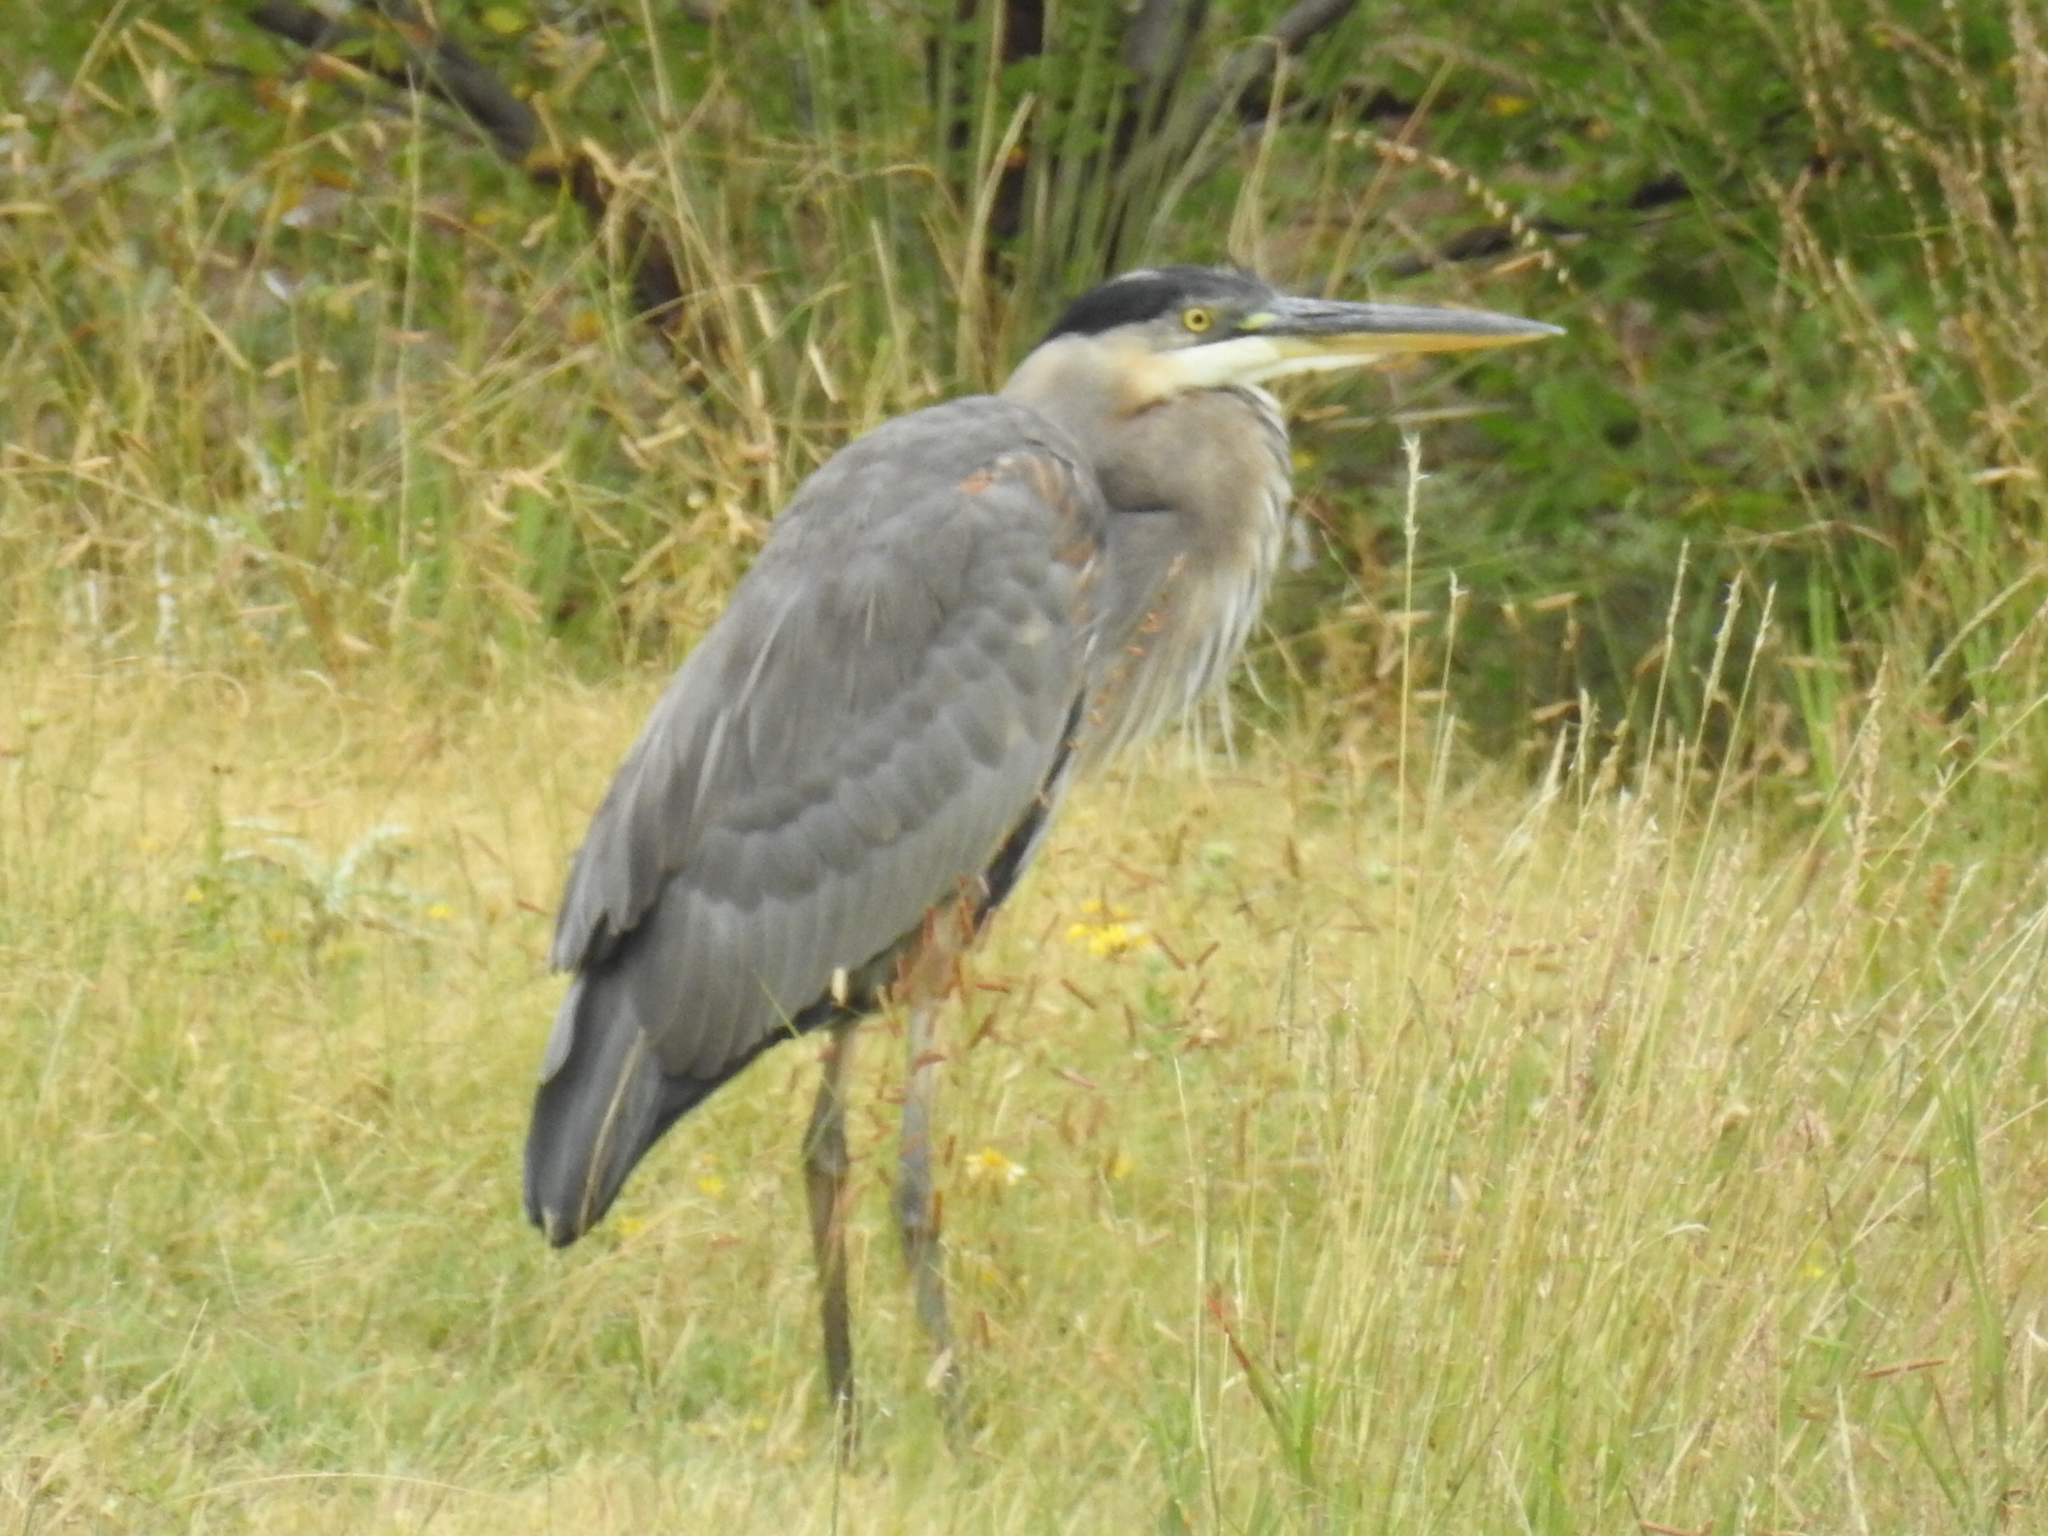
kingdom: Animalia
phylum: Chordata
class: Aves
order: Pelecaniformes
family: Ardeidae
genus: Ardea
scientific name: Ardea herodias
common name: Great blue heron
